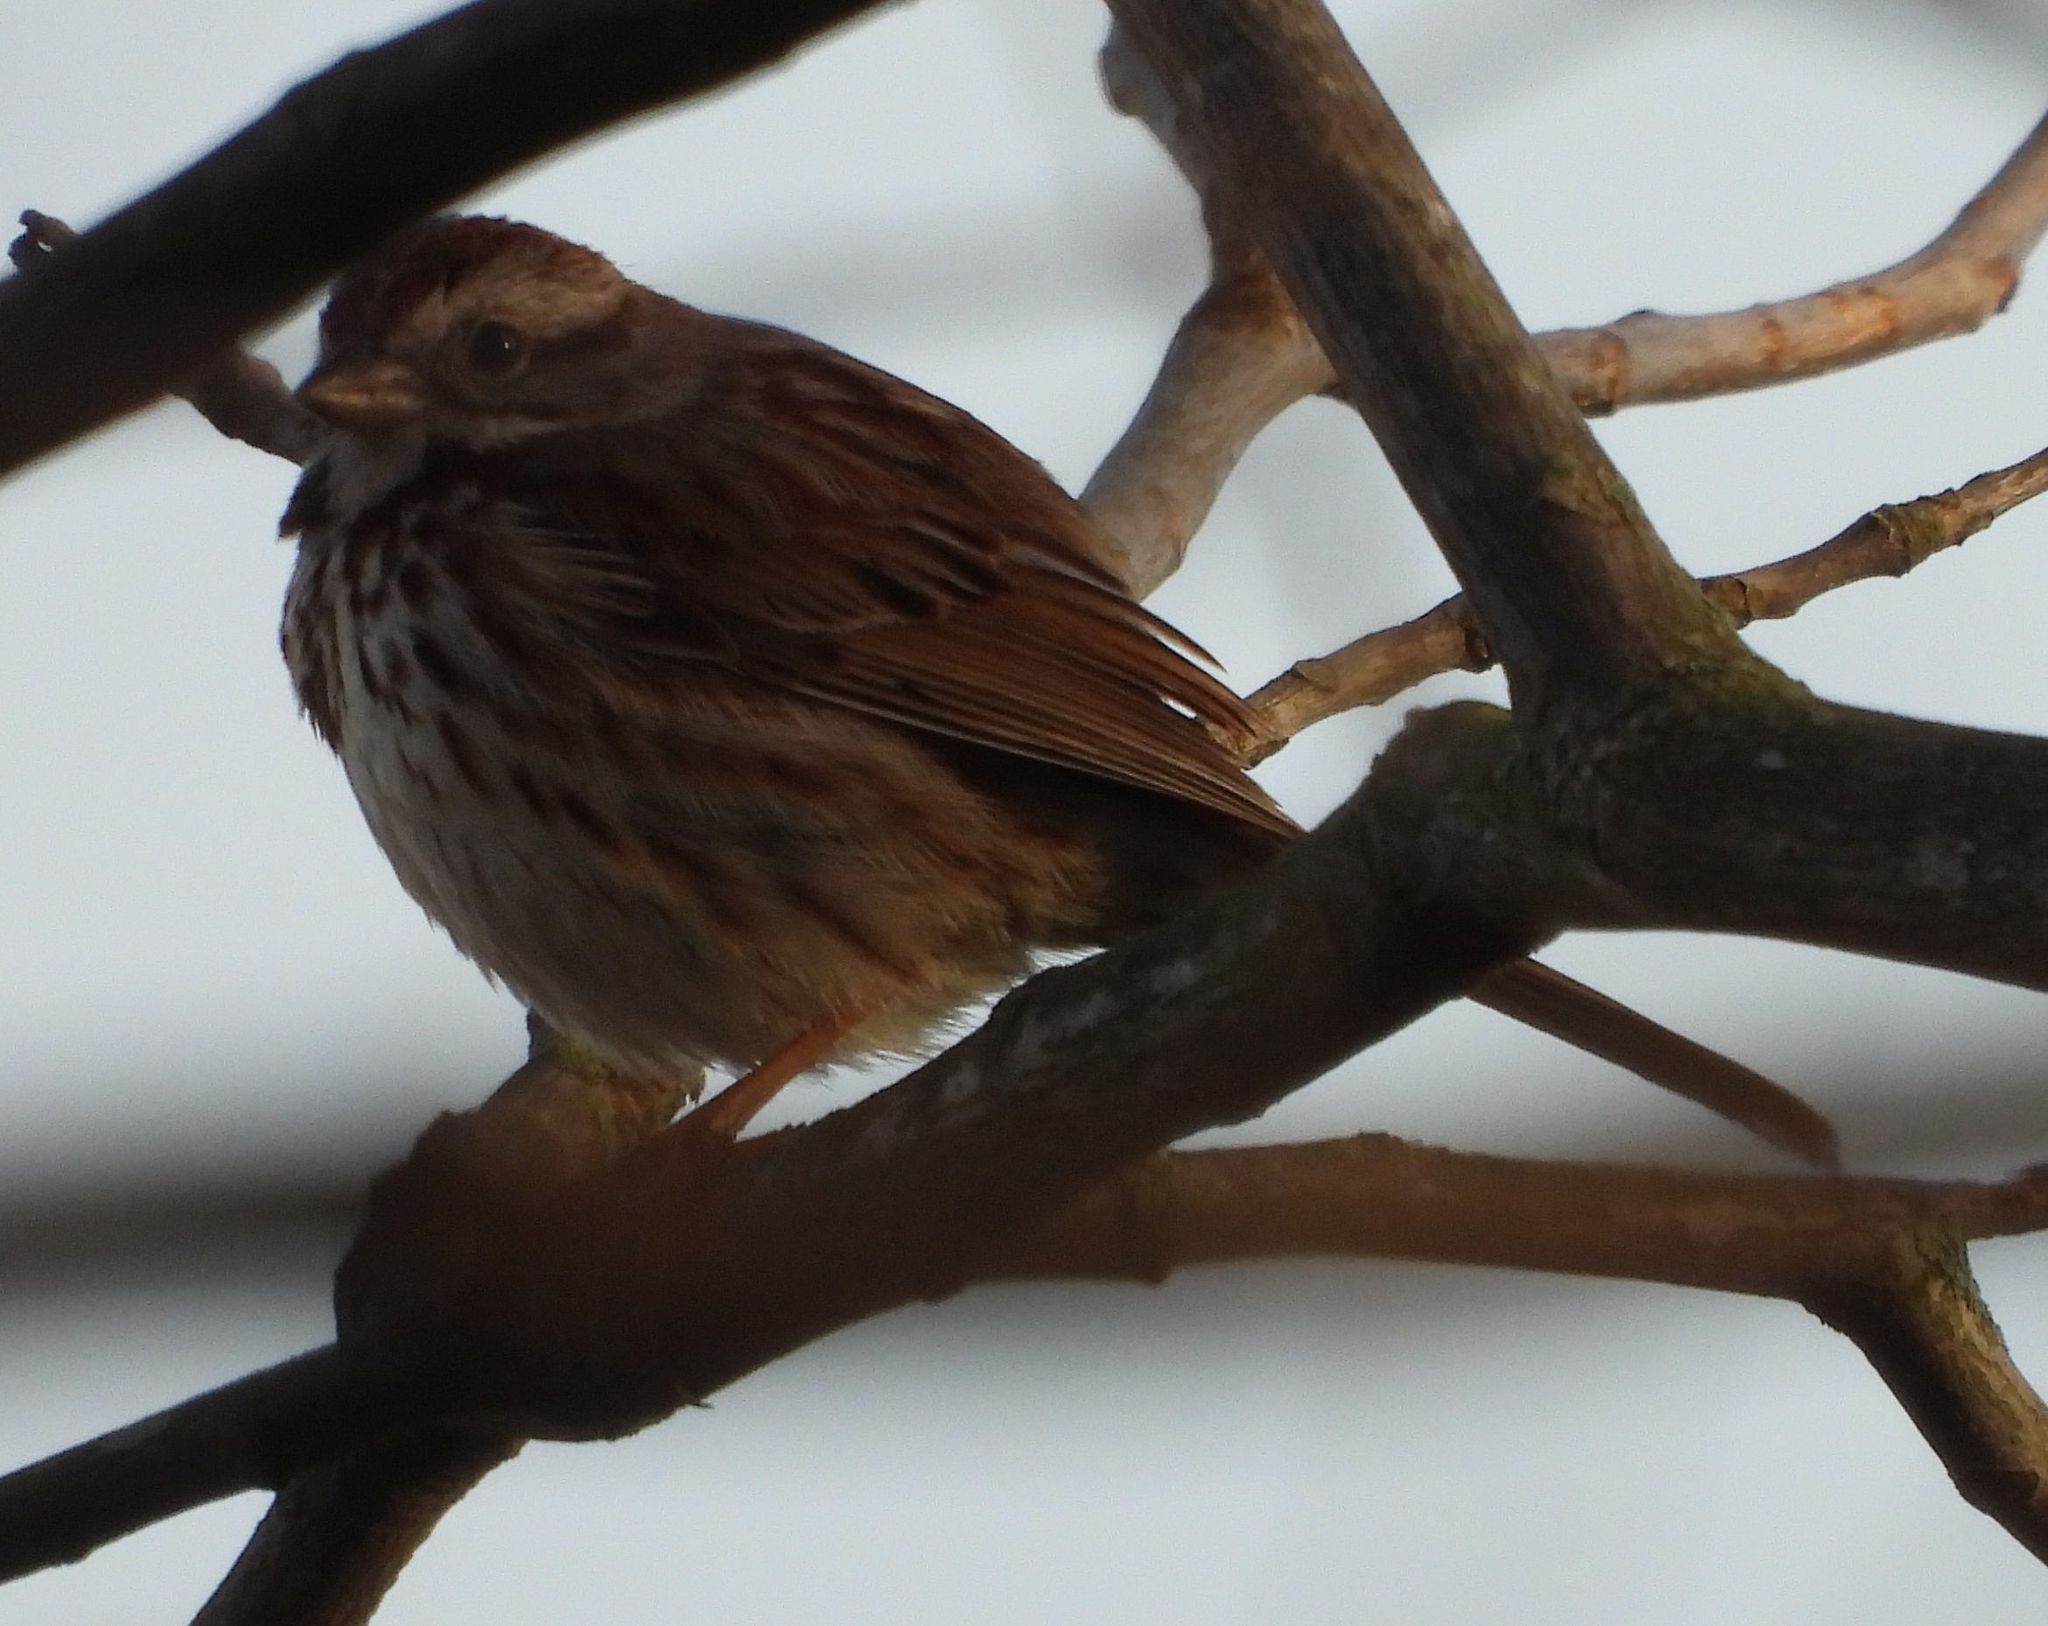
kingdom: Animalia
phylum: Chordata
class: Aves
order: Passeriformes
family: Passerellidae
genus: Melospiza
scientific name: Melospiza melodia
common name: Song sparrow
